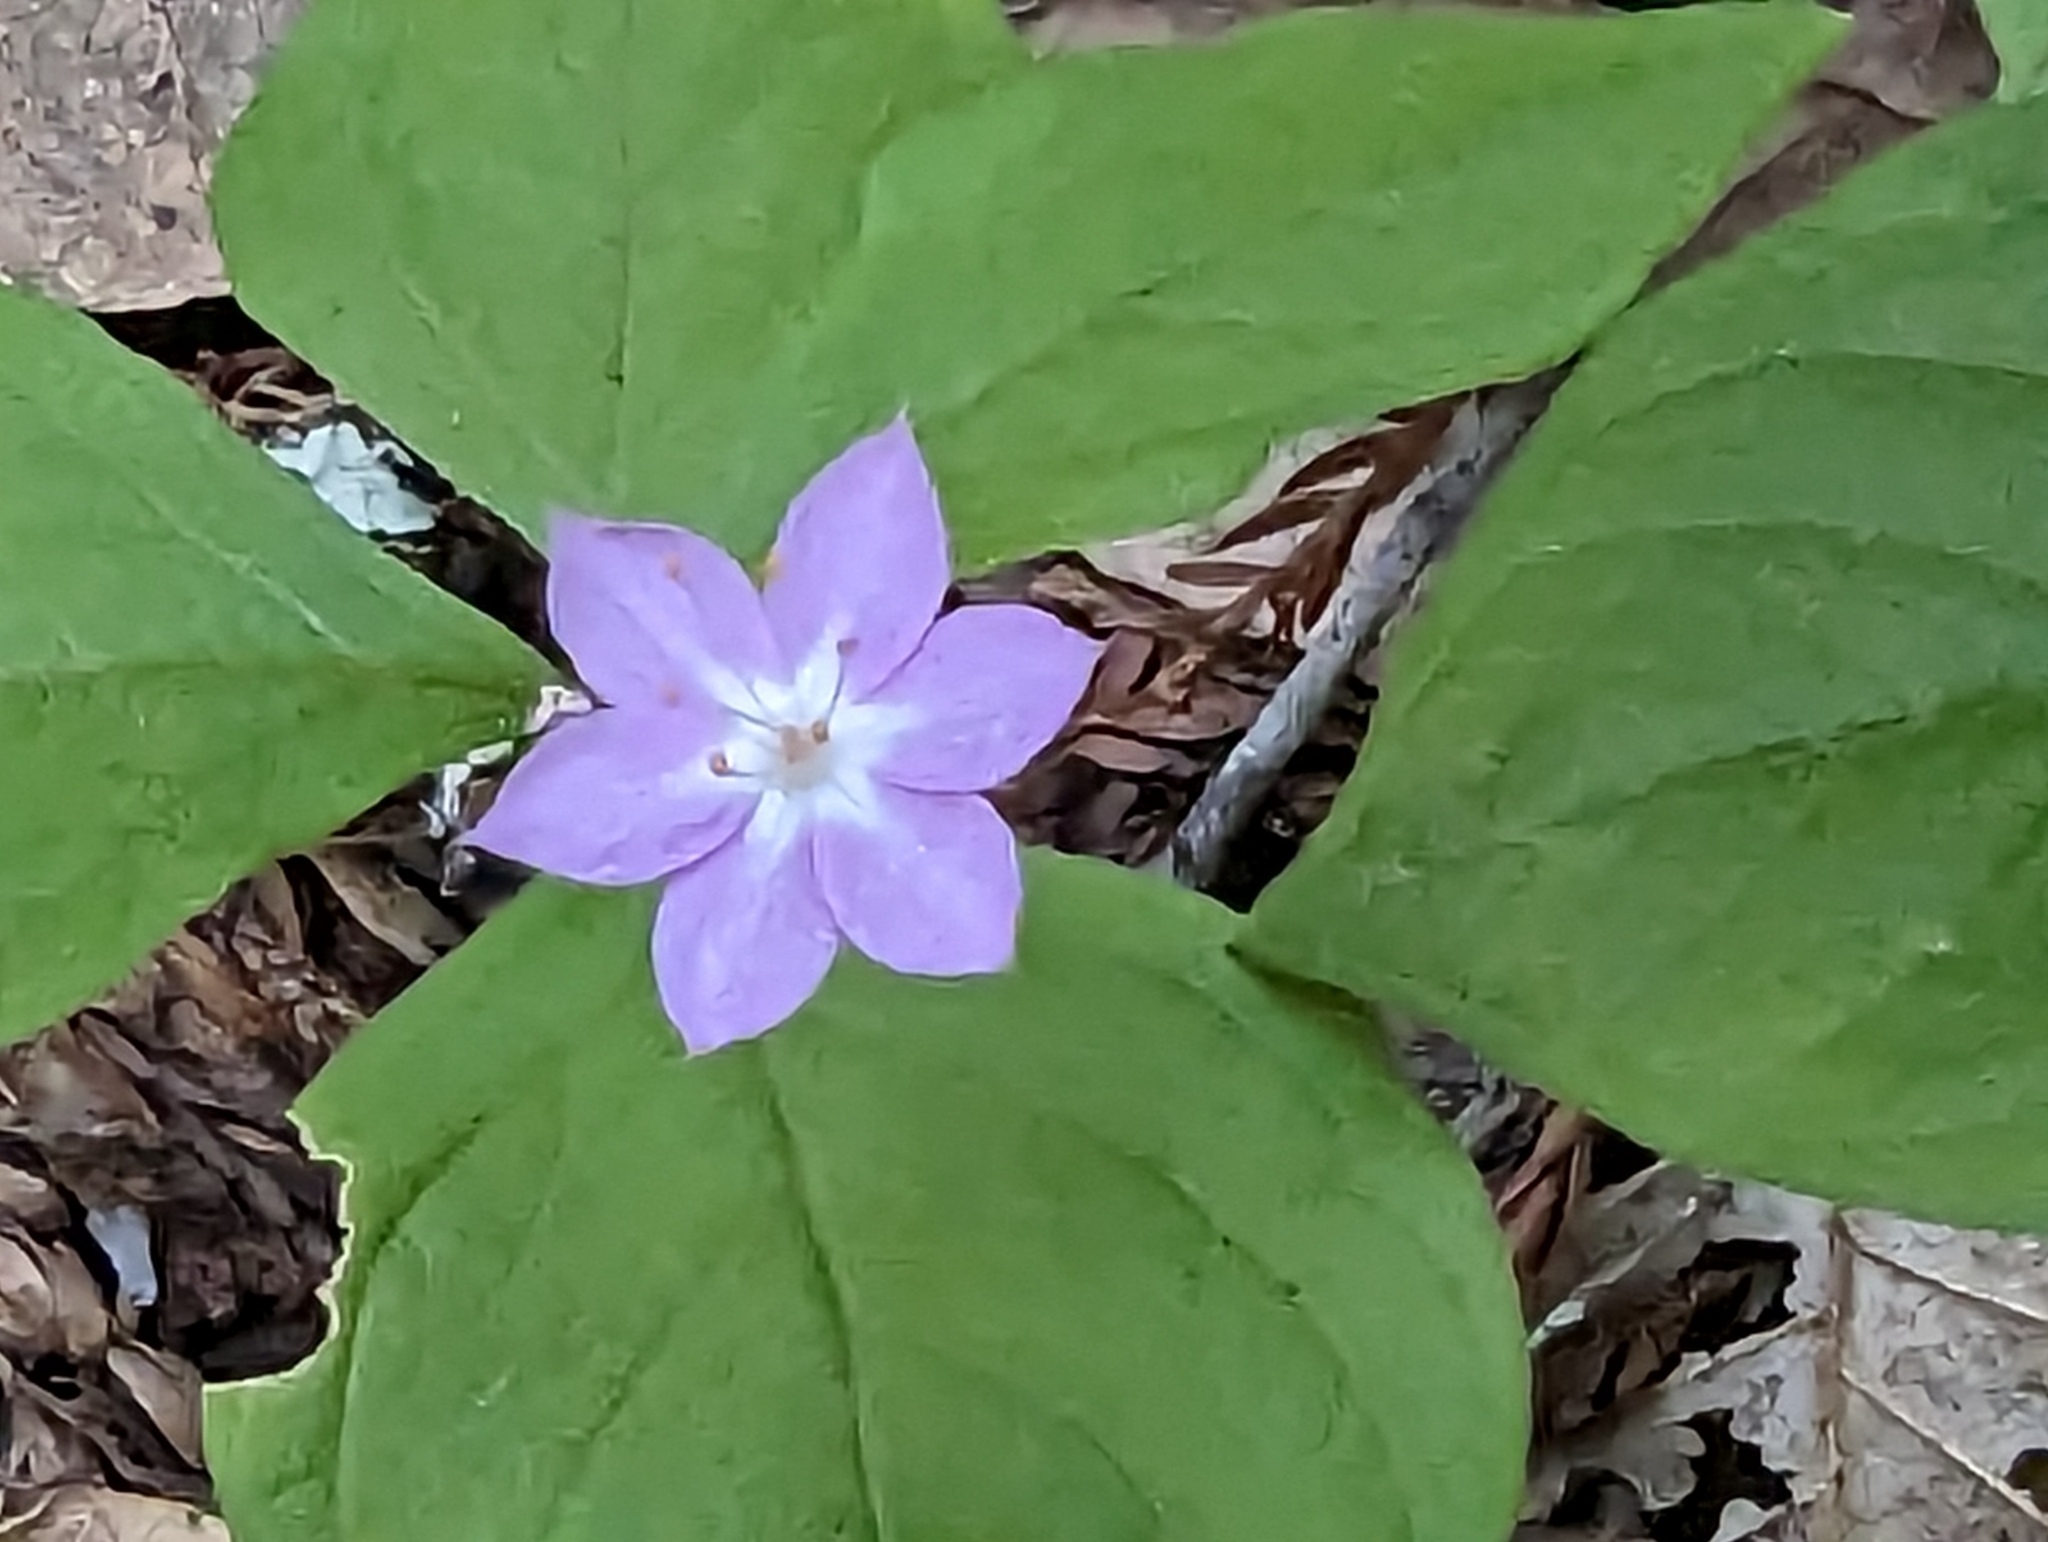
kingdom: Plantae
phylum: Tracheophyta
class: Magnoliopsida
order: Ericales
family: Primulaceae
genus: Lysimachia
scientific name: Lysimachia latifolia
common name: Pacific starflower
